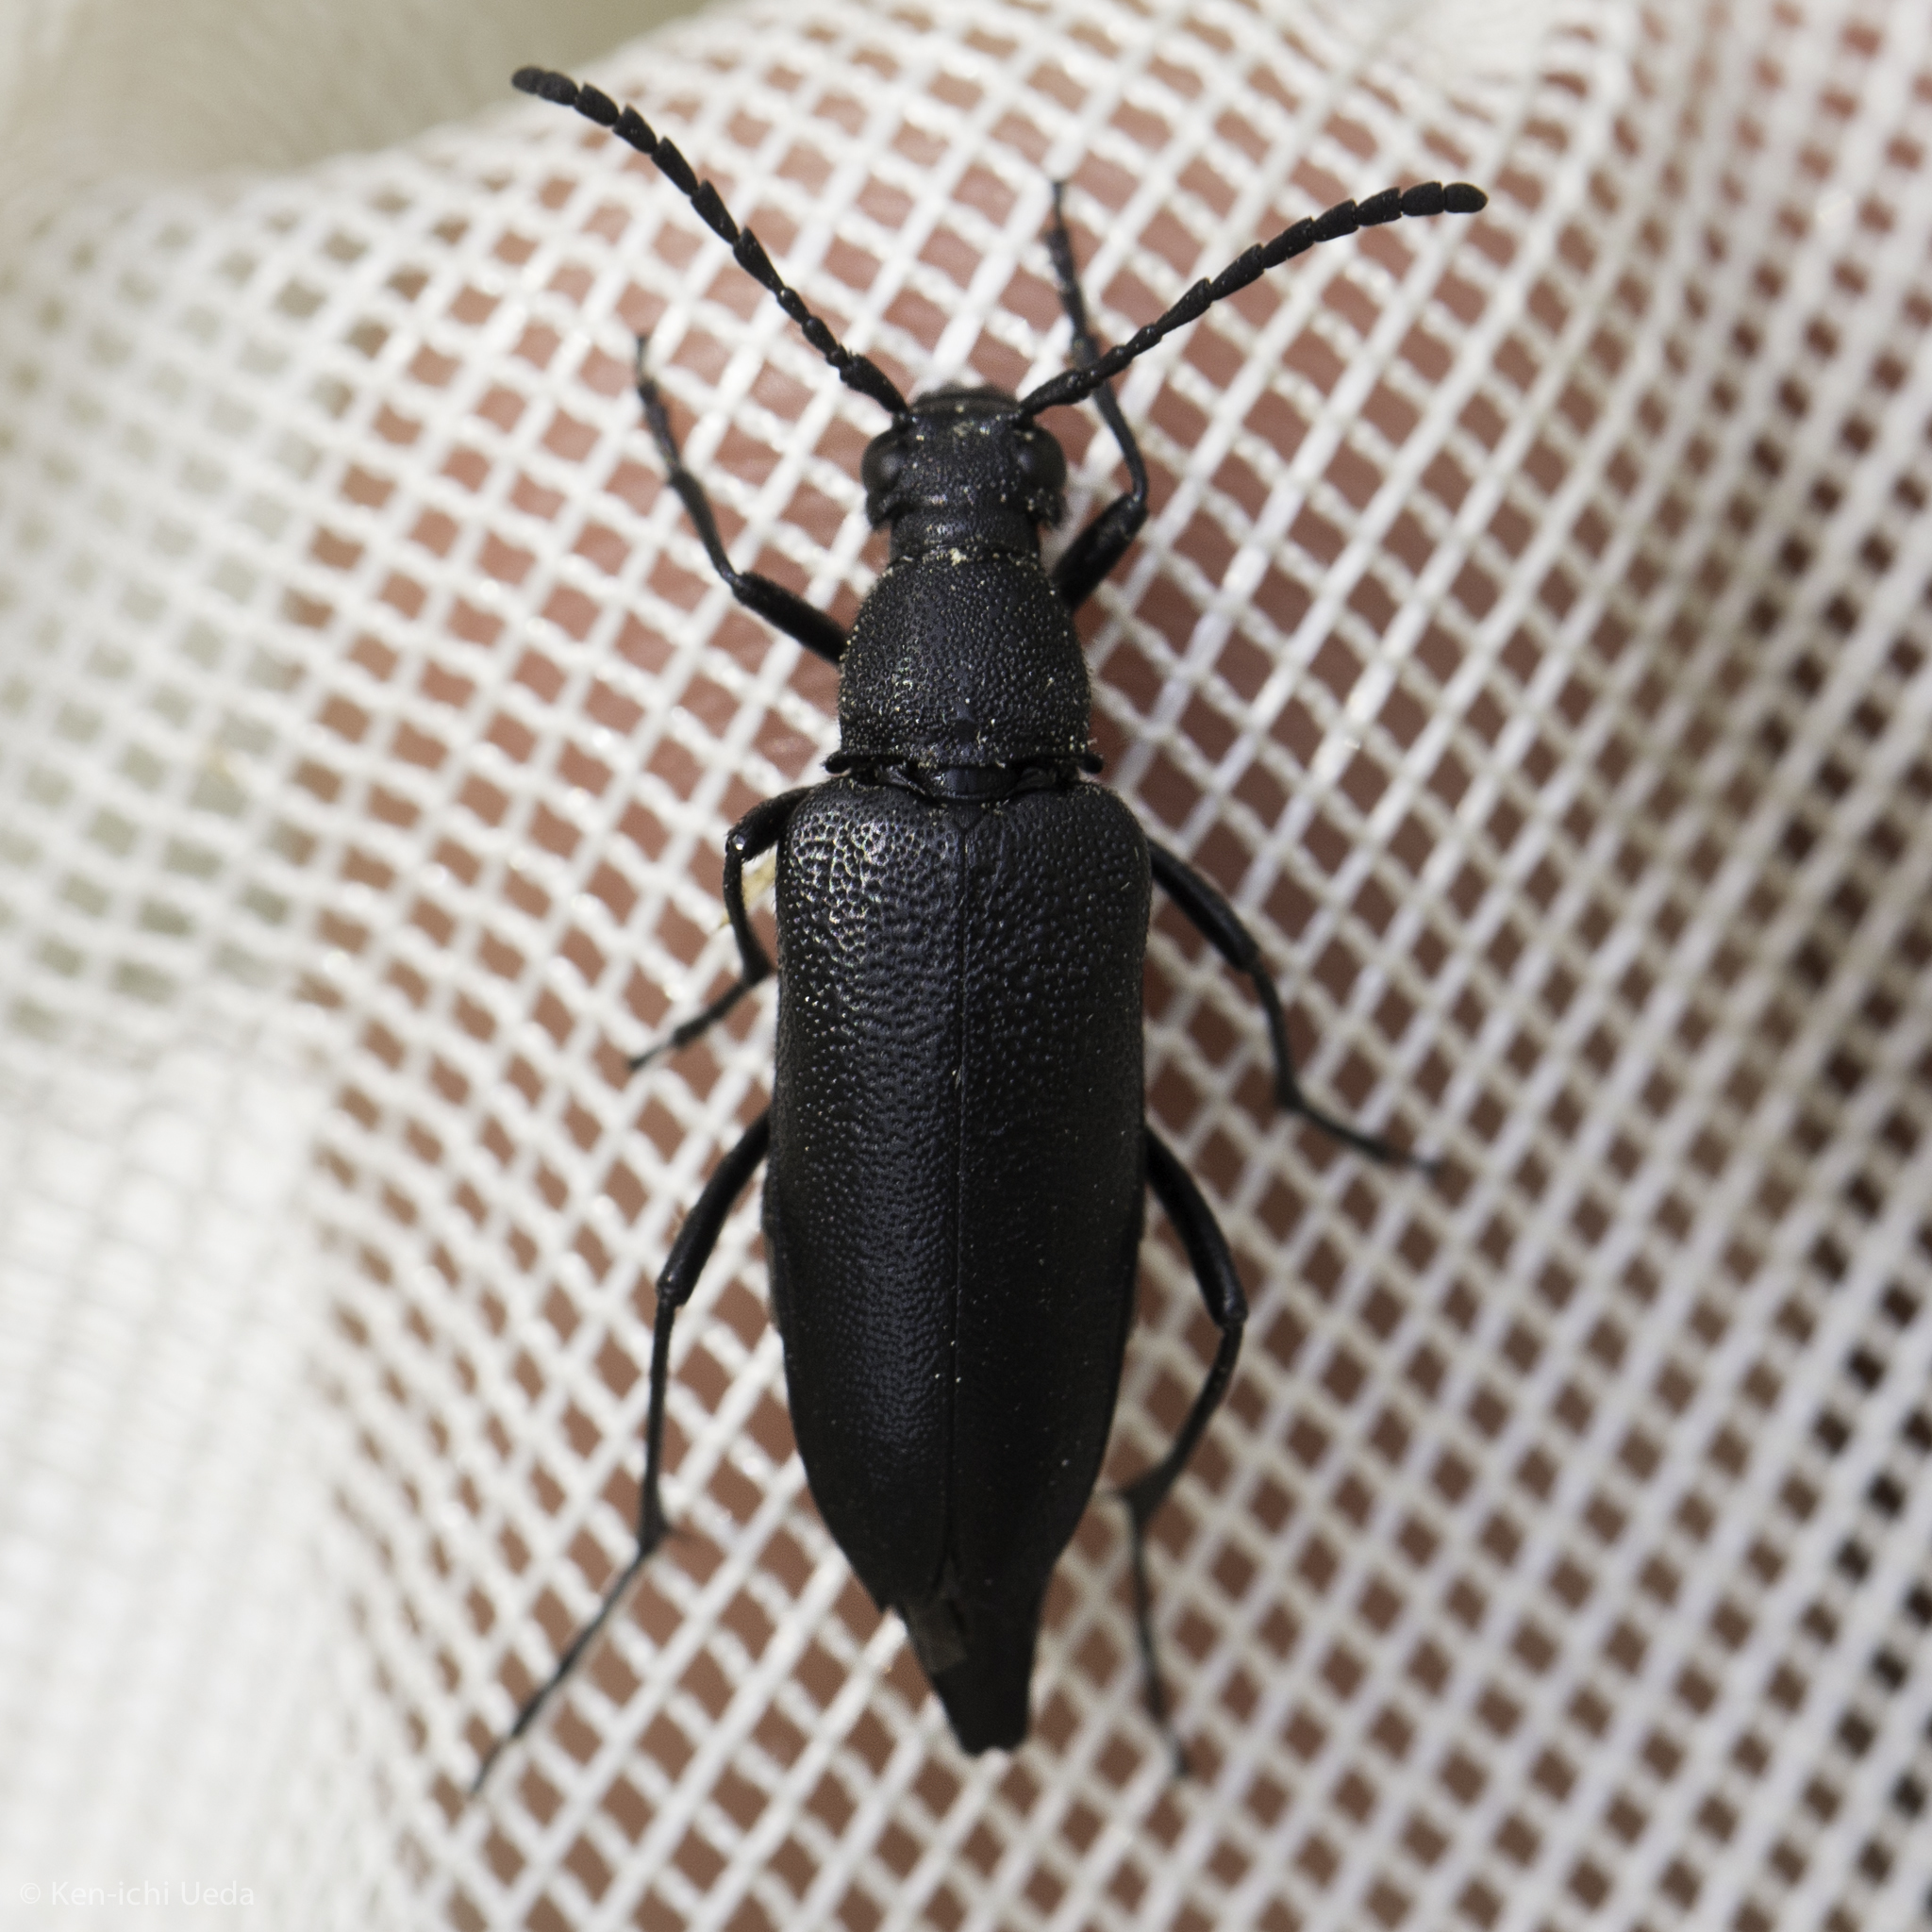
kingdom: Animalia
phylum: Arthropoda
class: Insecta
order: Coleoptera
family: Cerambycidae
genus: Pygoleptura
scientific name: Pygoleptura brevicornis
